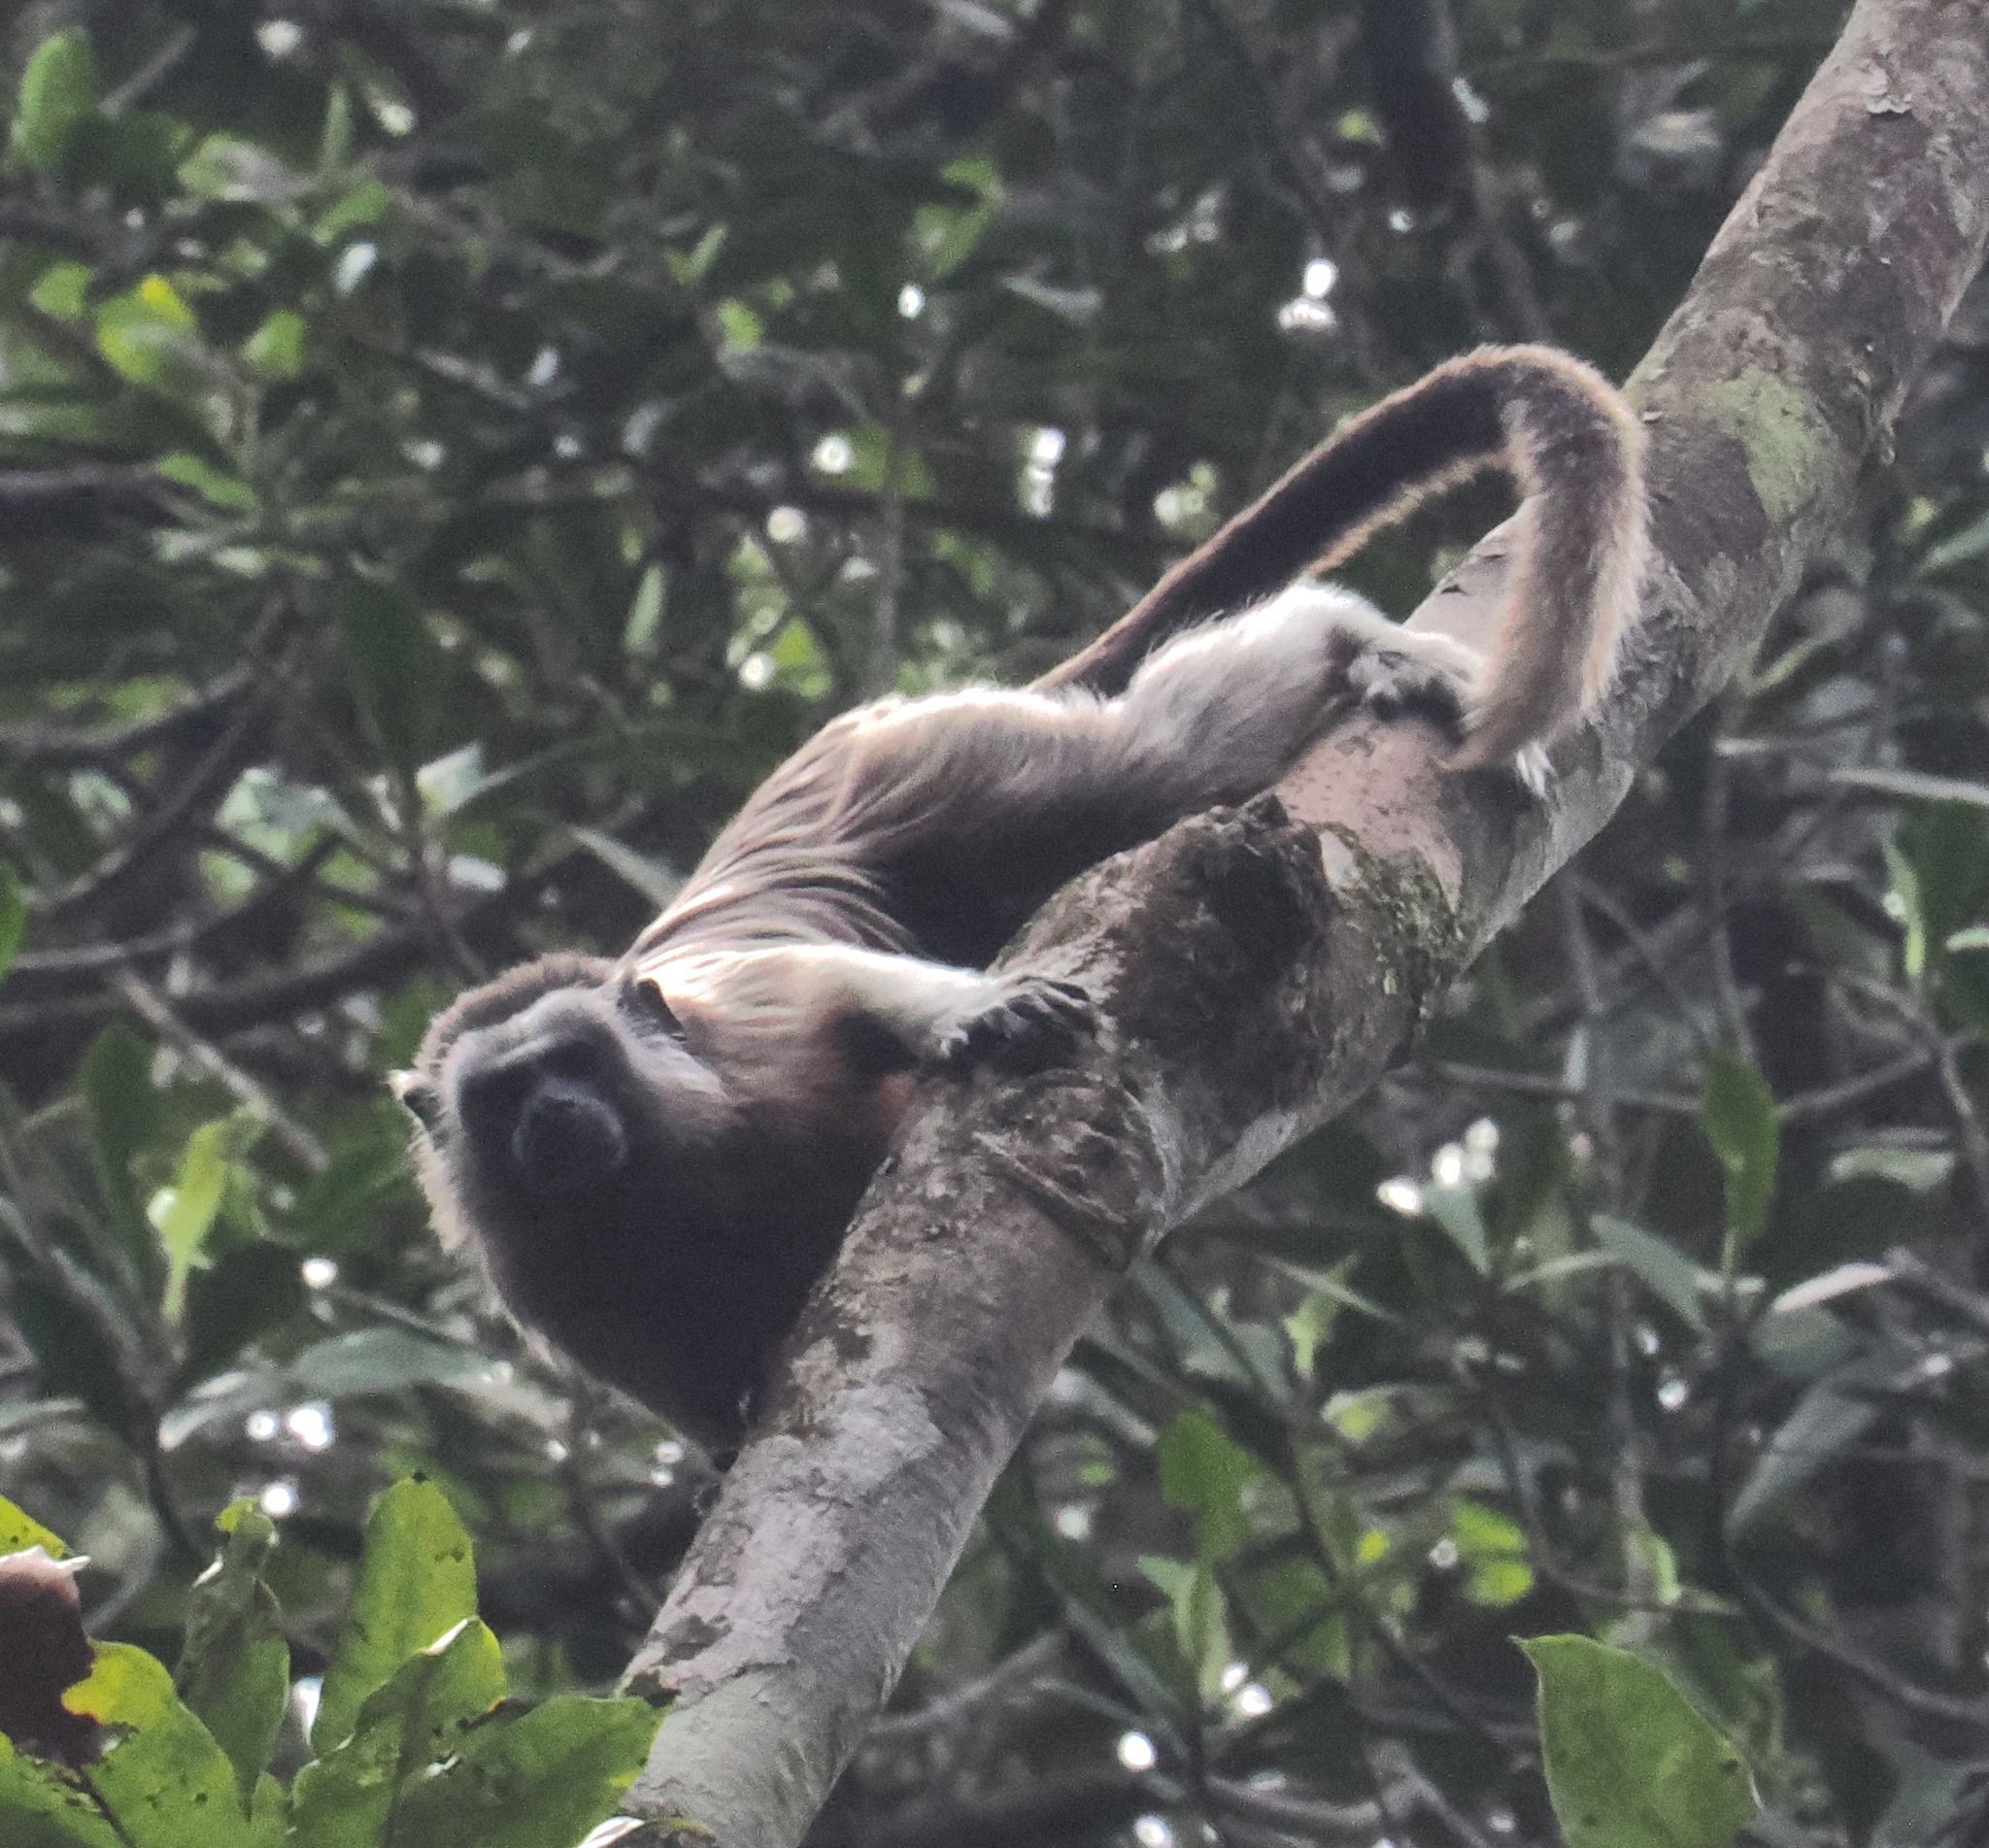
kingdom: Animalia
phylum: Chordata
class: Mammalia
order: Primates
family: Callitrichidae
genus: Saguinus
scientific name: Saguinus leucopus
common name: White-footed tamarin
